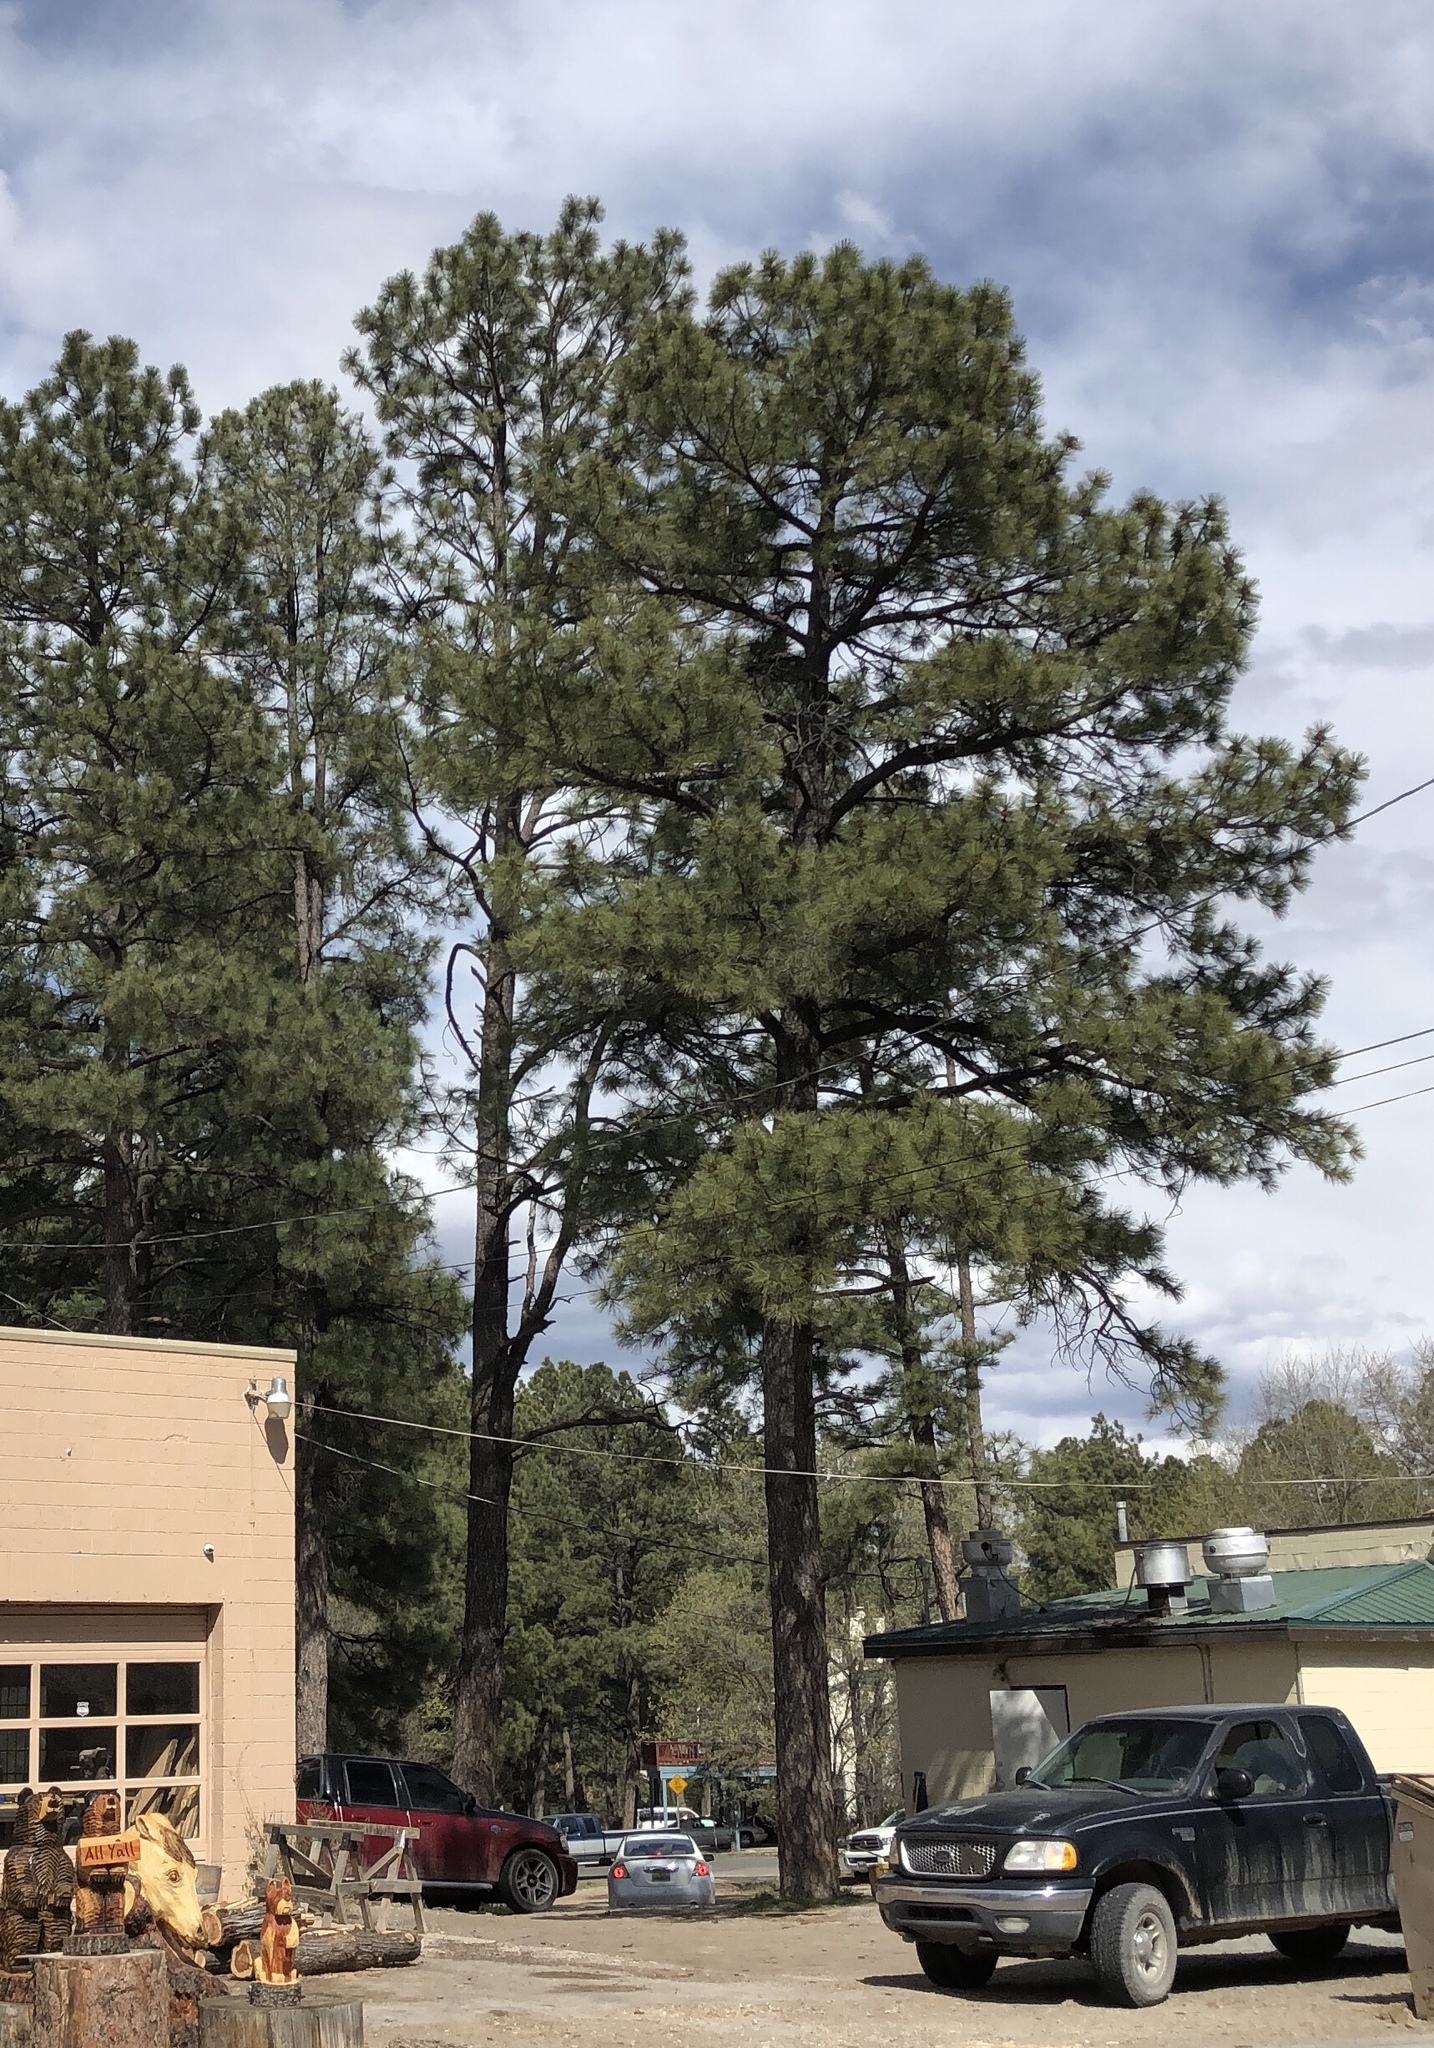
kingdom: Plantae
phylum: Tracheophyta
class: Pinopsida
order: Pinales
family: Pinaceae
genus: Pinus
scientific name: Pinus ponderosa
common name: Western yellow-pine
